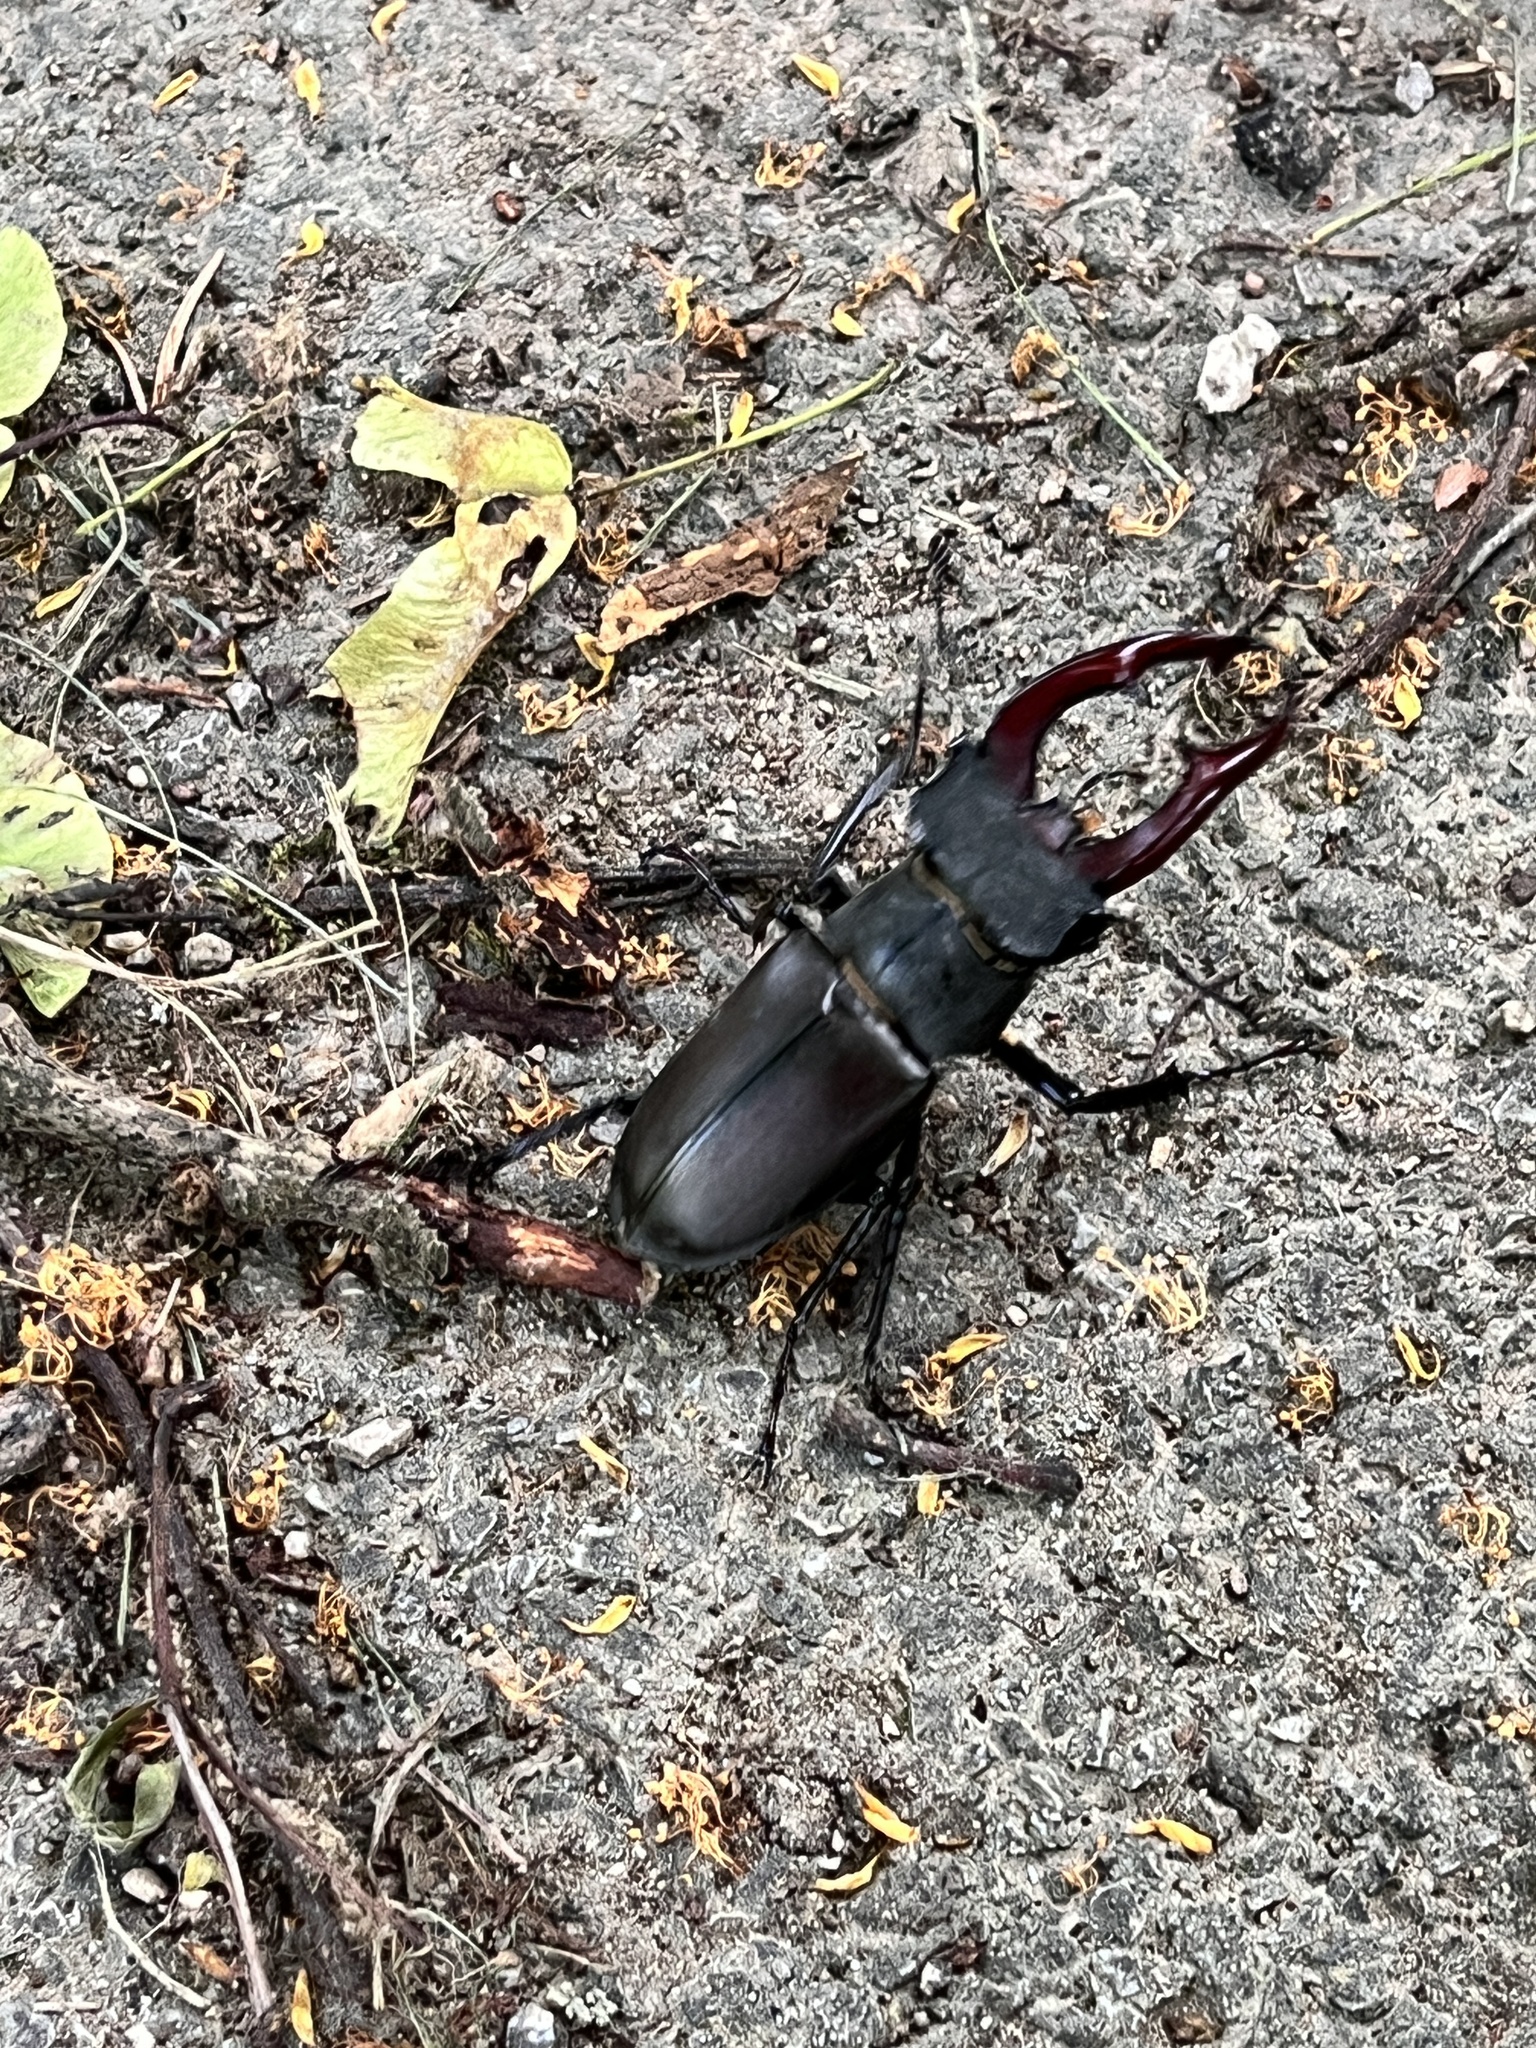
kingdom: Animalia
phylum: Arthropoda
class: Insecta
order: Coleoptera
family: Lucanidae
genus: Lucanus
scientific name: Lucanus cervus
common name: Stag beetle
